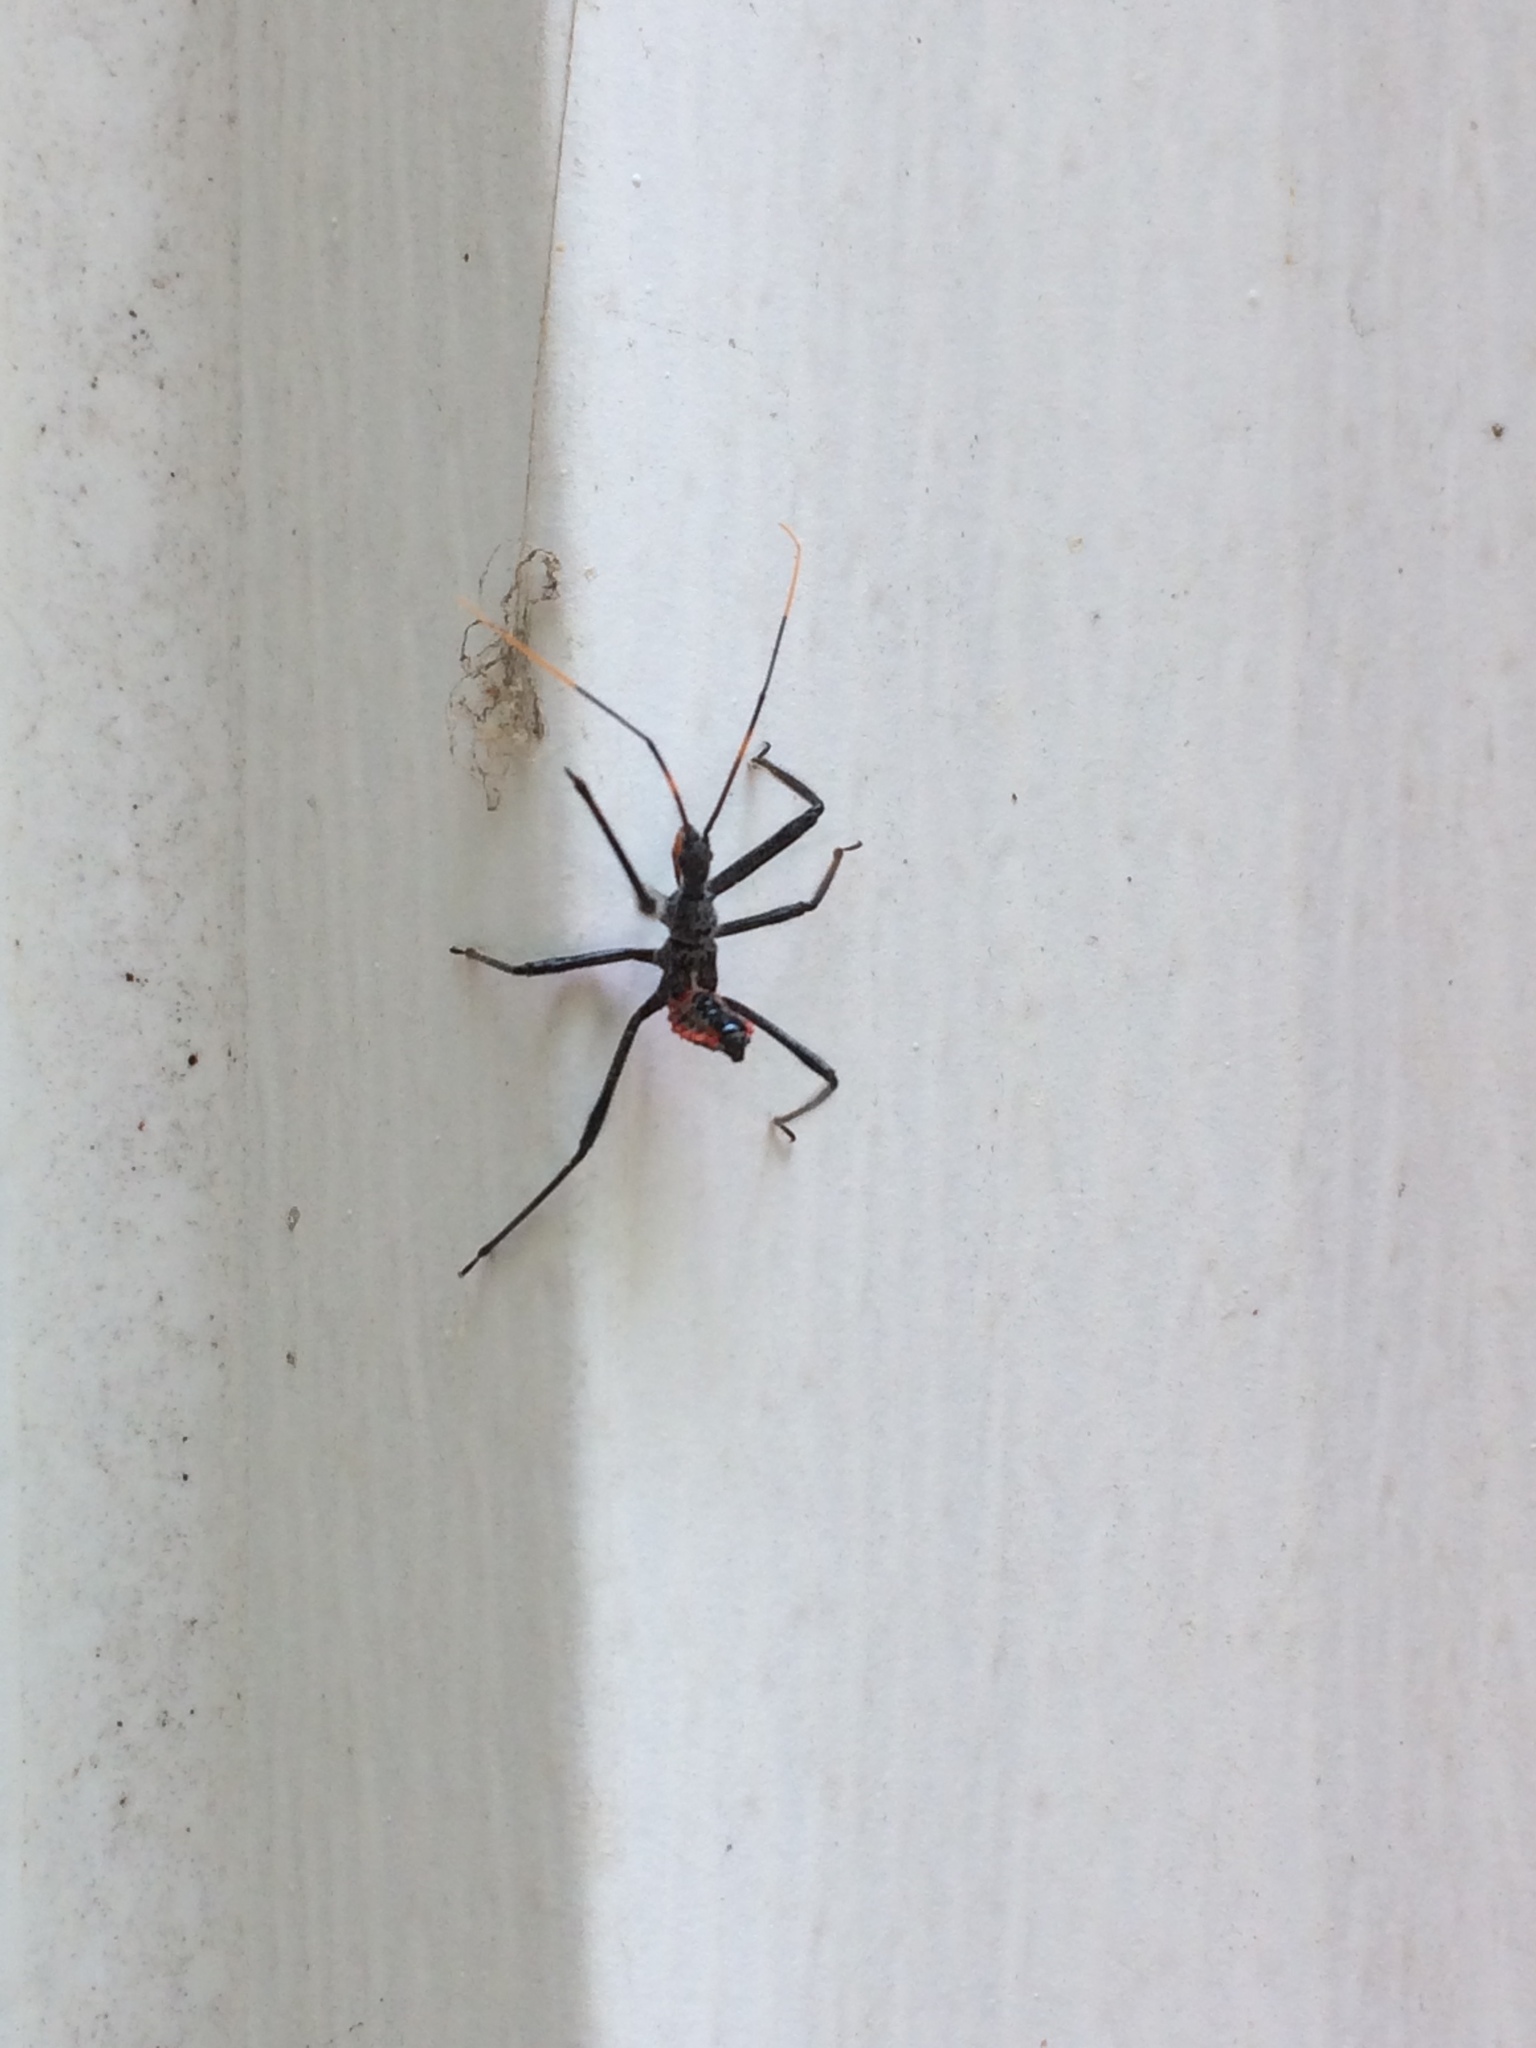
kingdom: Animalia
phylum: Arthropoda
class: Insecta
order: Hemiptera
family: Reduviidae
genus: Arilus
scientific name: Arilus cristatus
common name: North american wheel bug
